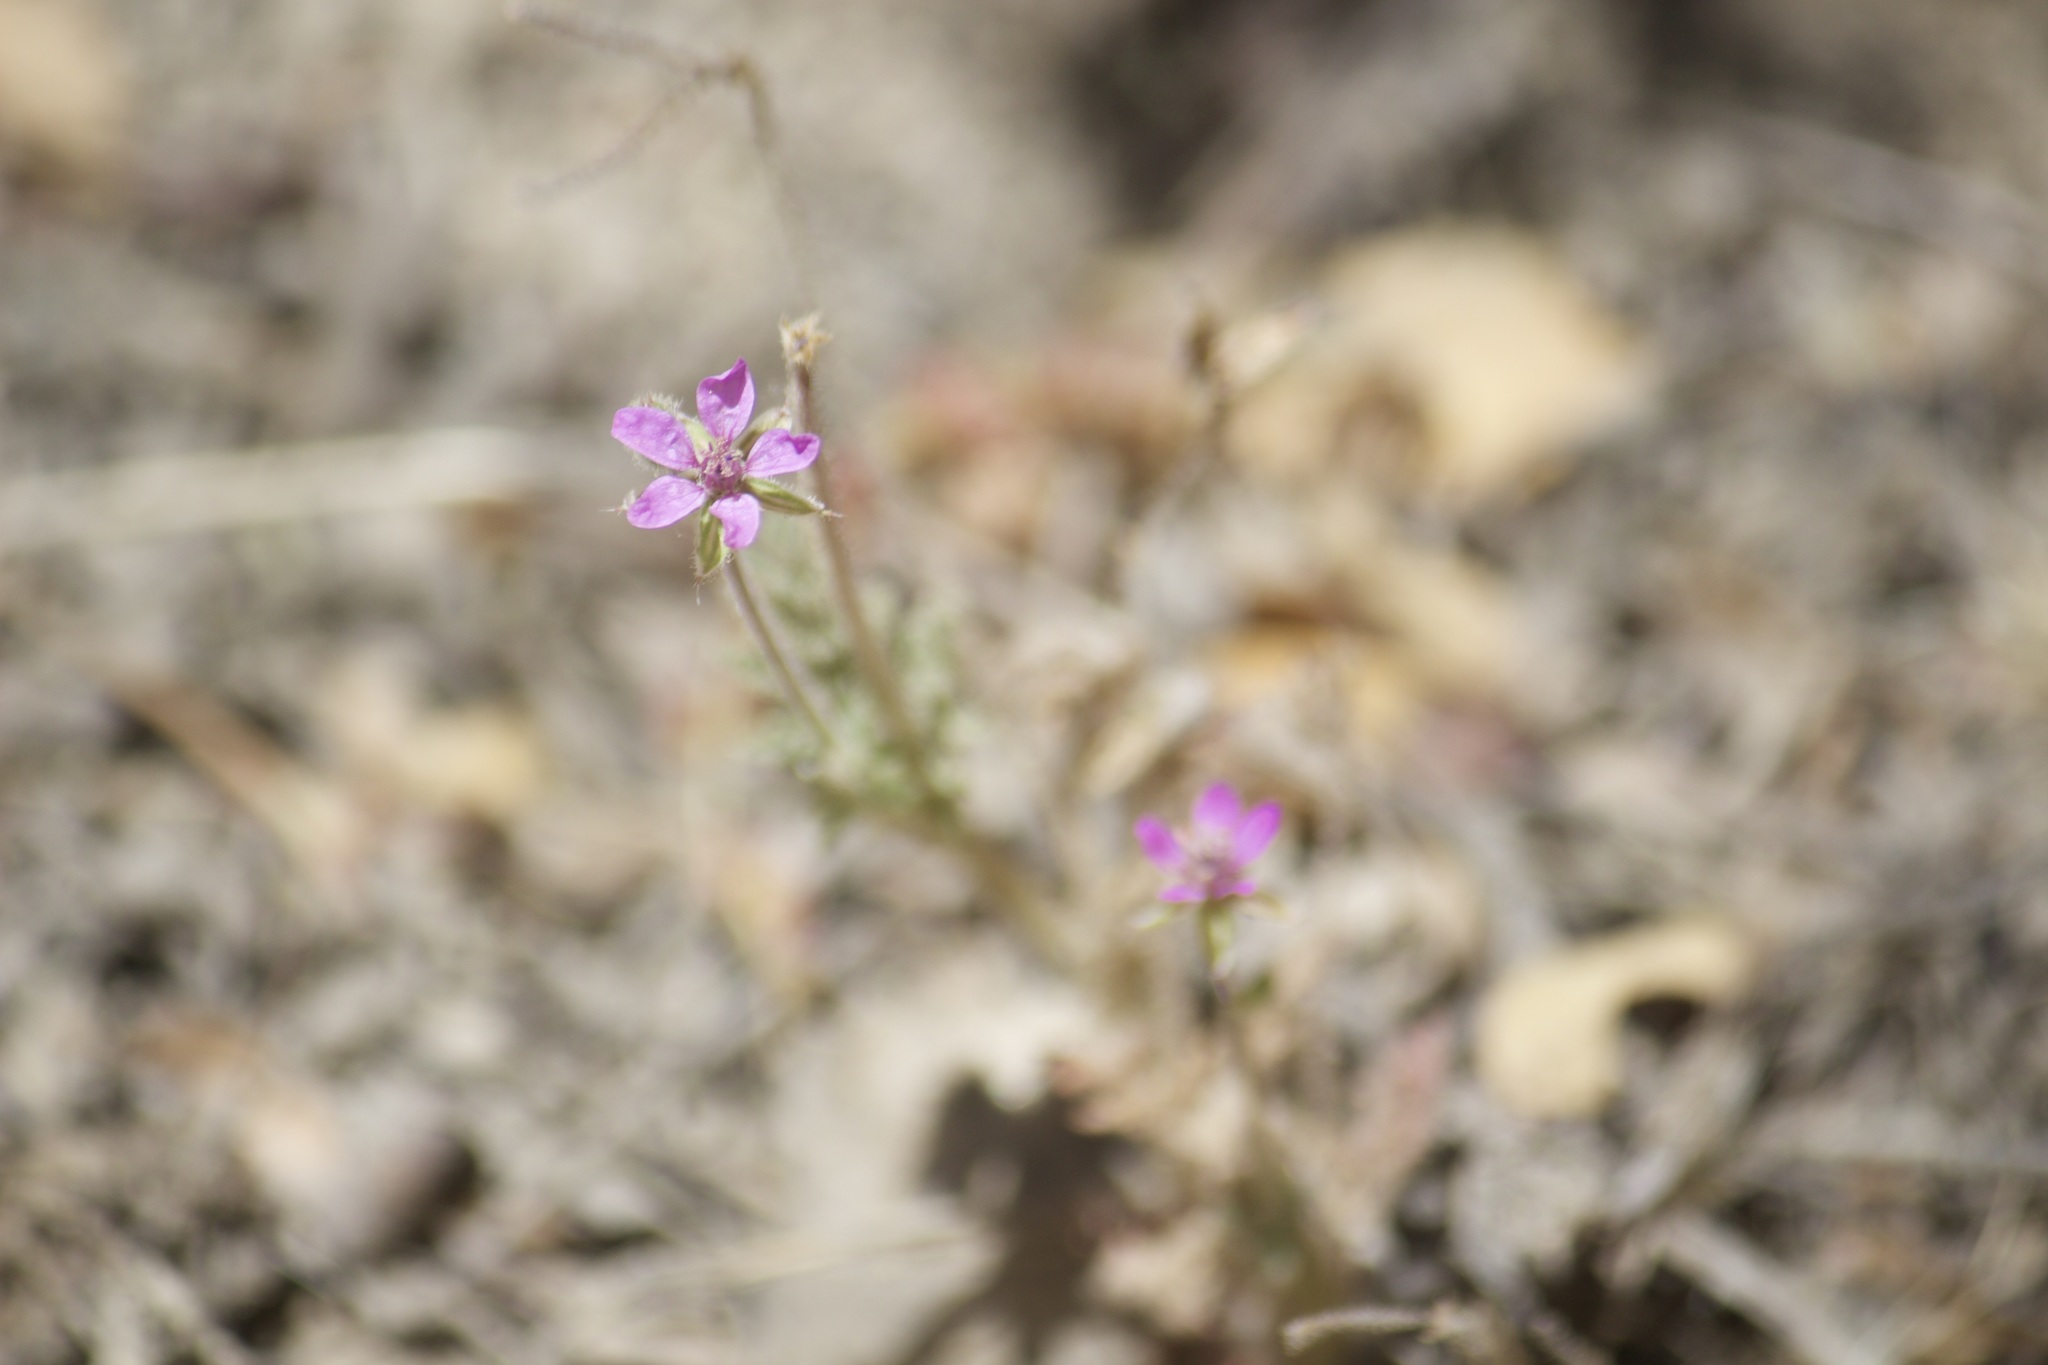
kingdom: Plantae
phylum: Tracheophyta
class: Magnoliopsida
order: Geraniales
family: Geraniaceae
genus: Erodium
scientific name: Erodium cicutarium
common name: Common stork's-bill
